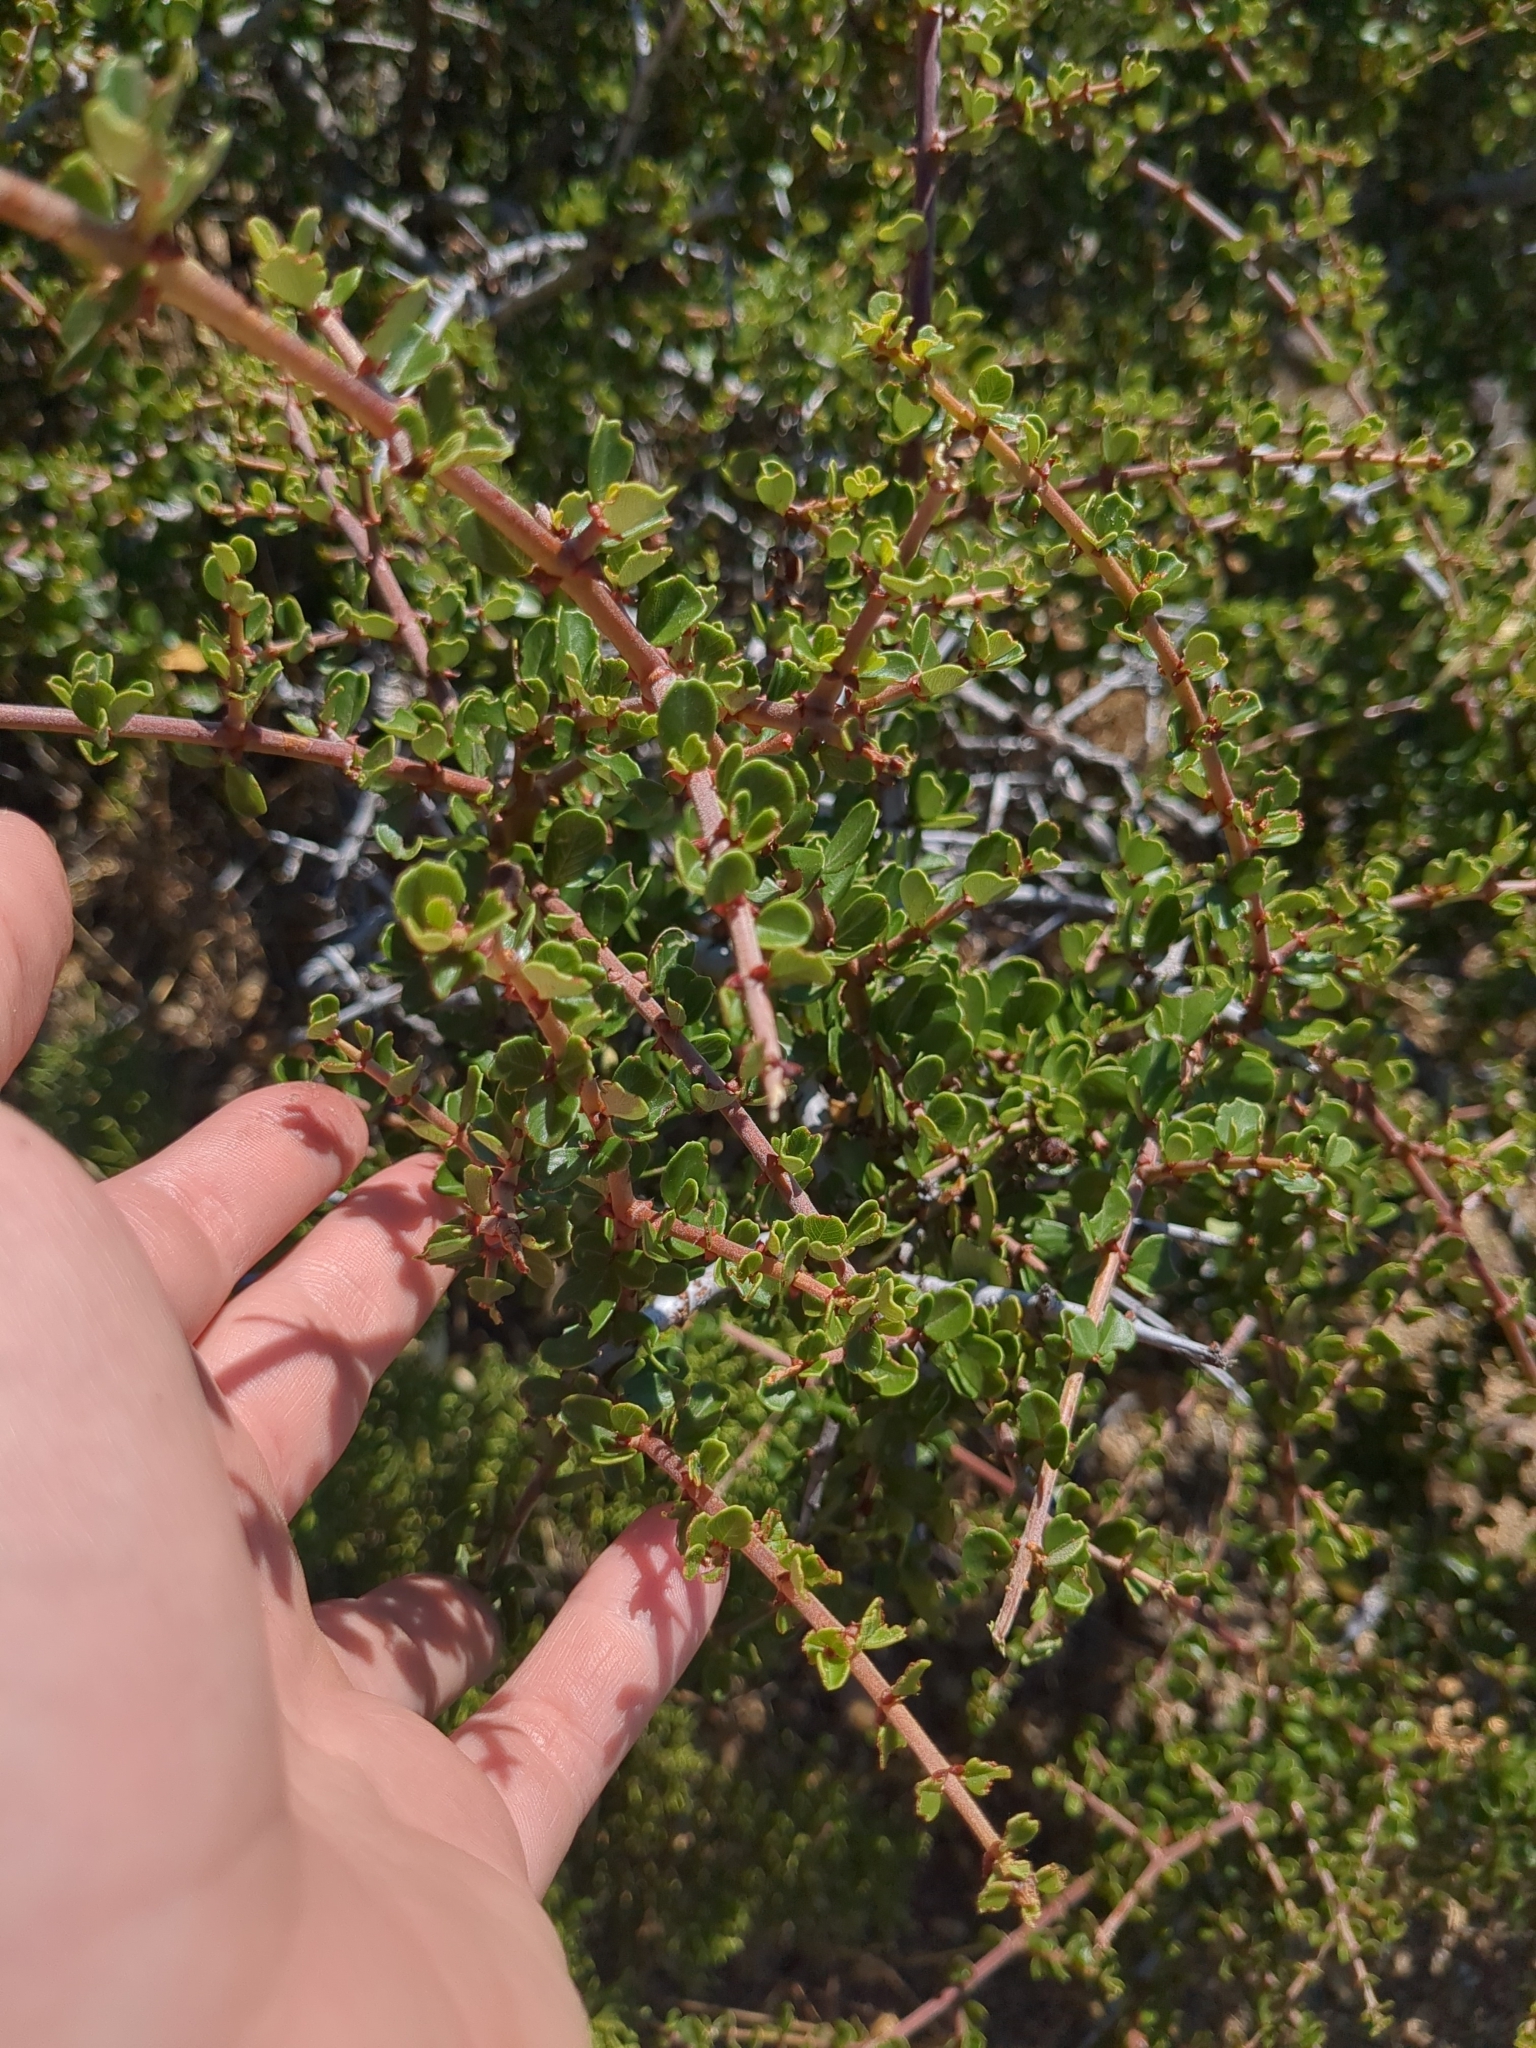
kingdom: Plantae
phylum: Tracheophyta
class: Magnoliopsida
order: Rosales
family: Rhamnaceae
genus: Ceanothus
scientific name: Ceanothus cuneatus
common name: Cuneate ceanothus
